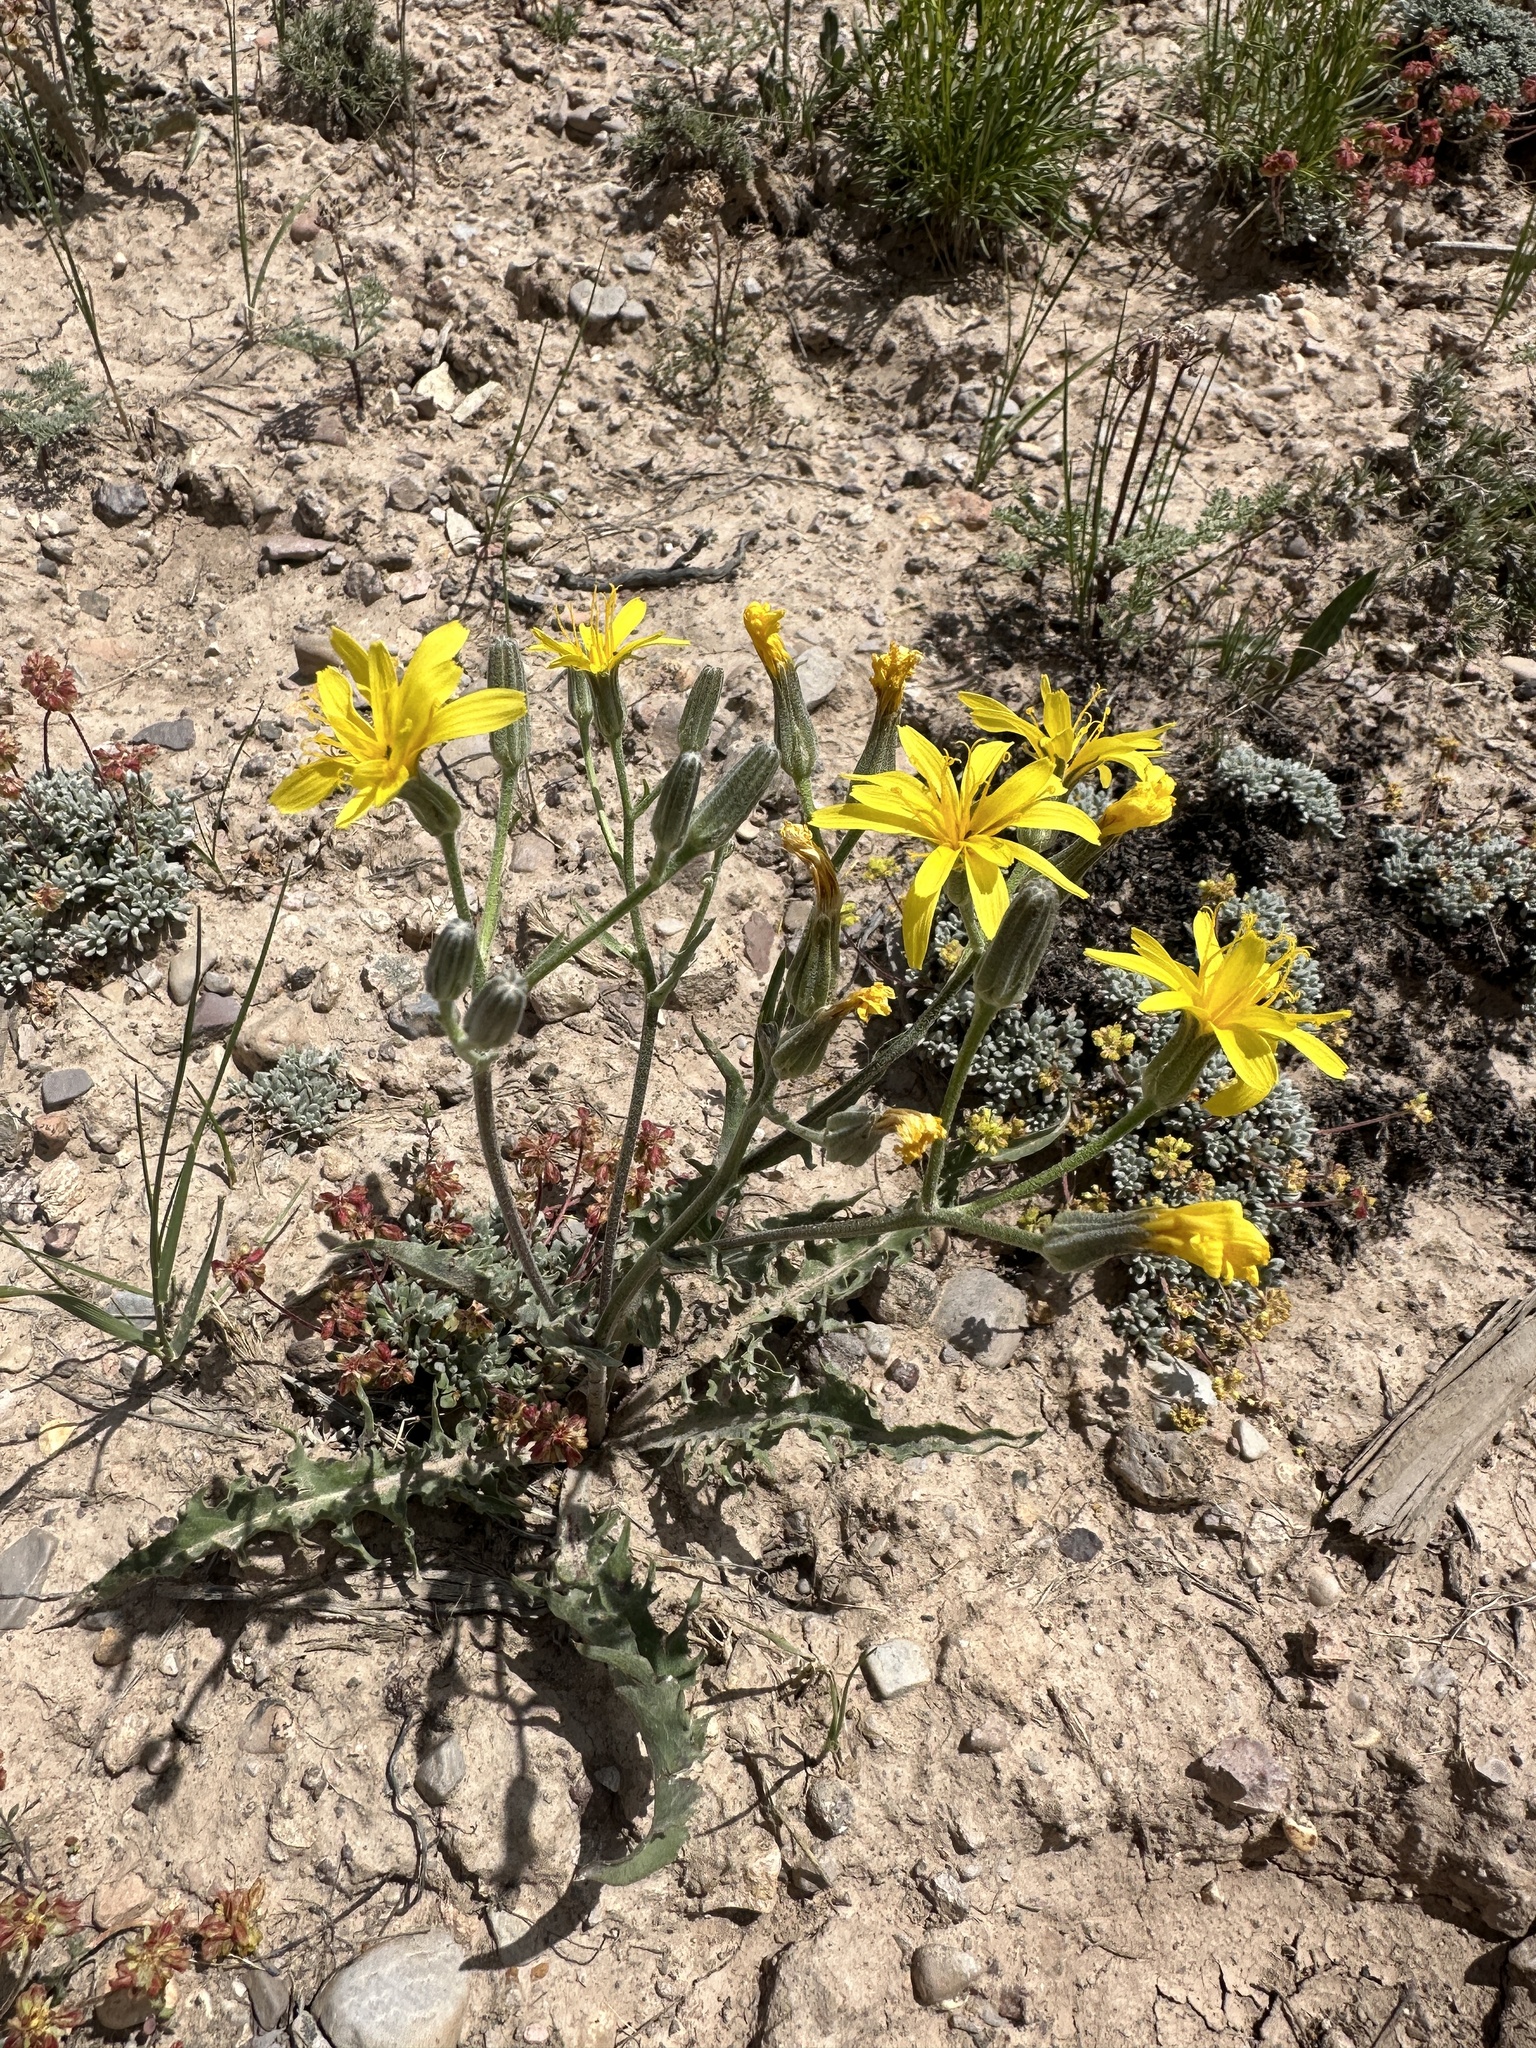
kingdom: Plantae
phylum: Tracheophyta
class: Magnoliopsida
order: Asterales
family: Asteraceae
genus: Crepis
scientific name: Crepis occidentalis
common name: Gray hawk's-beard
